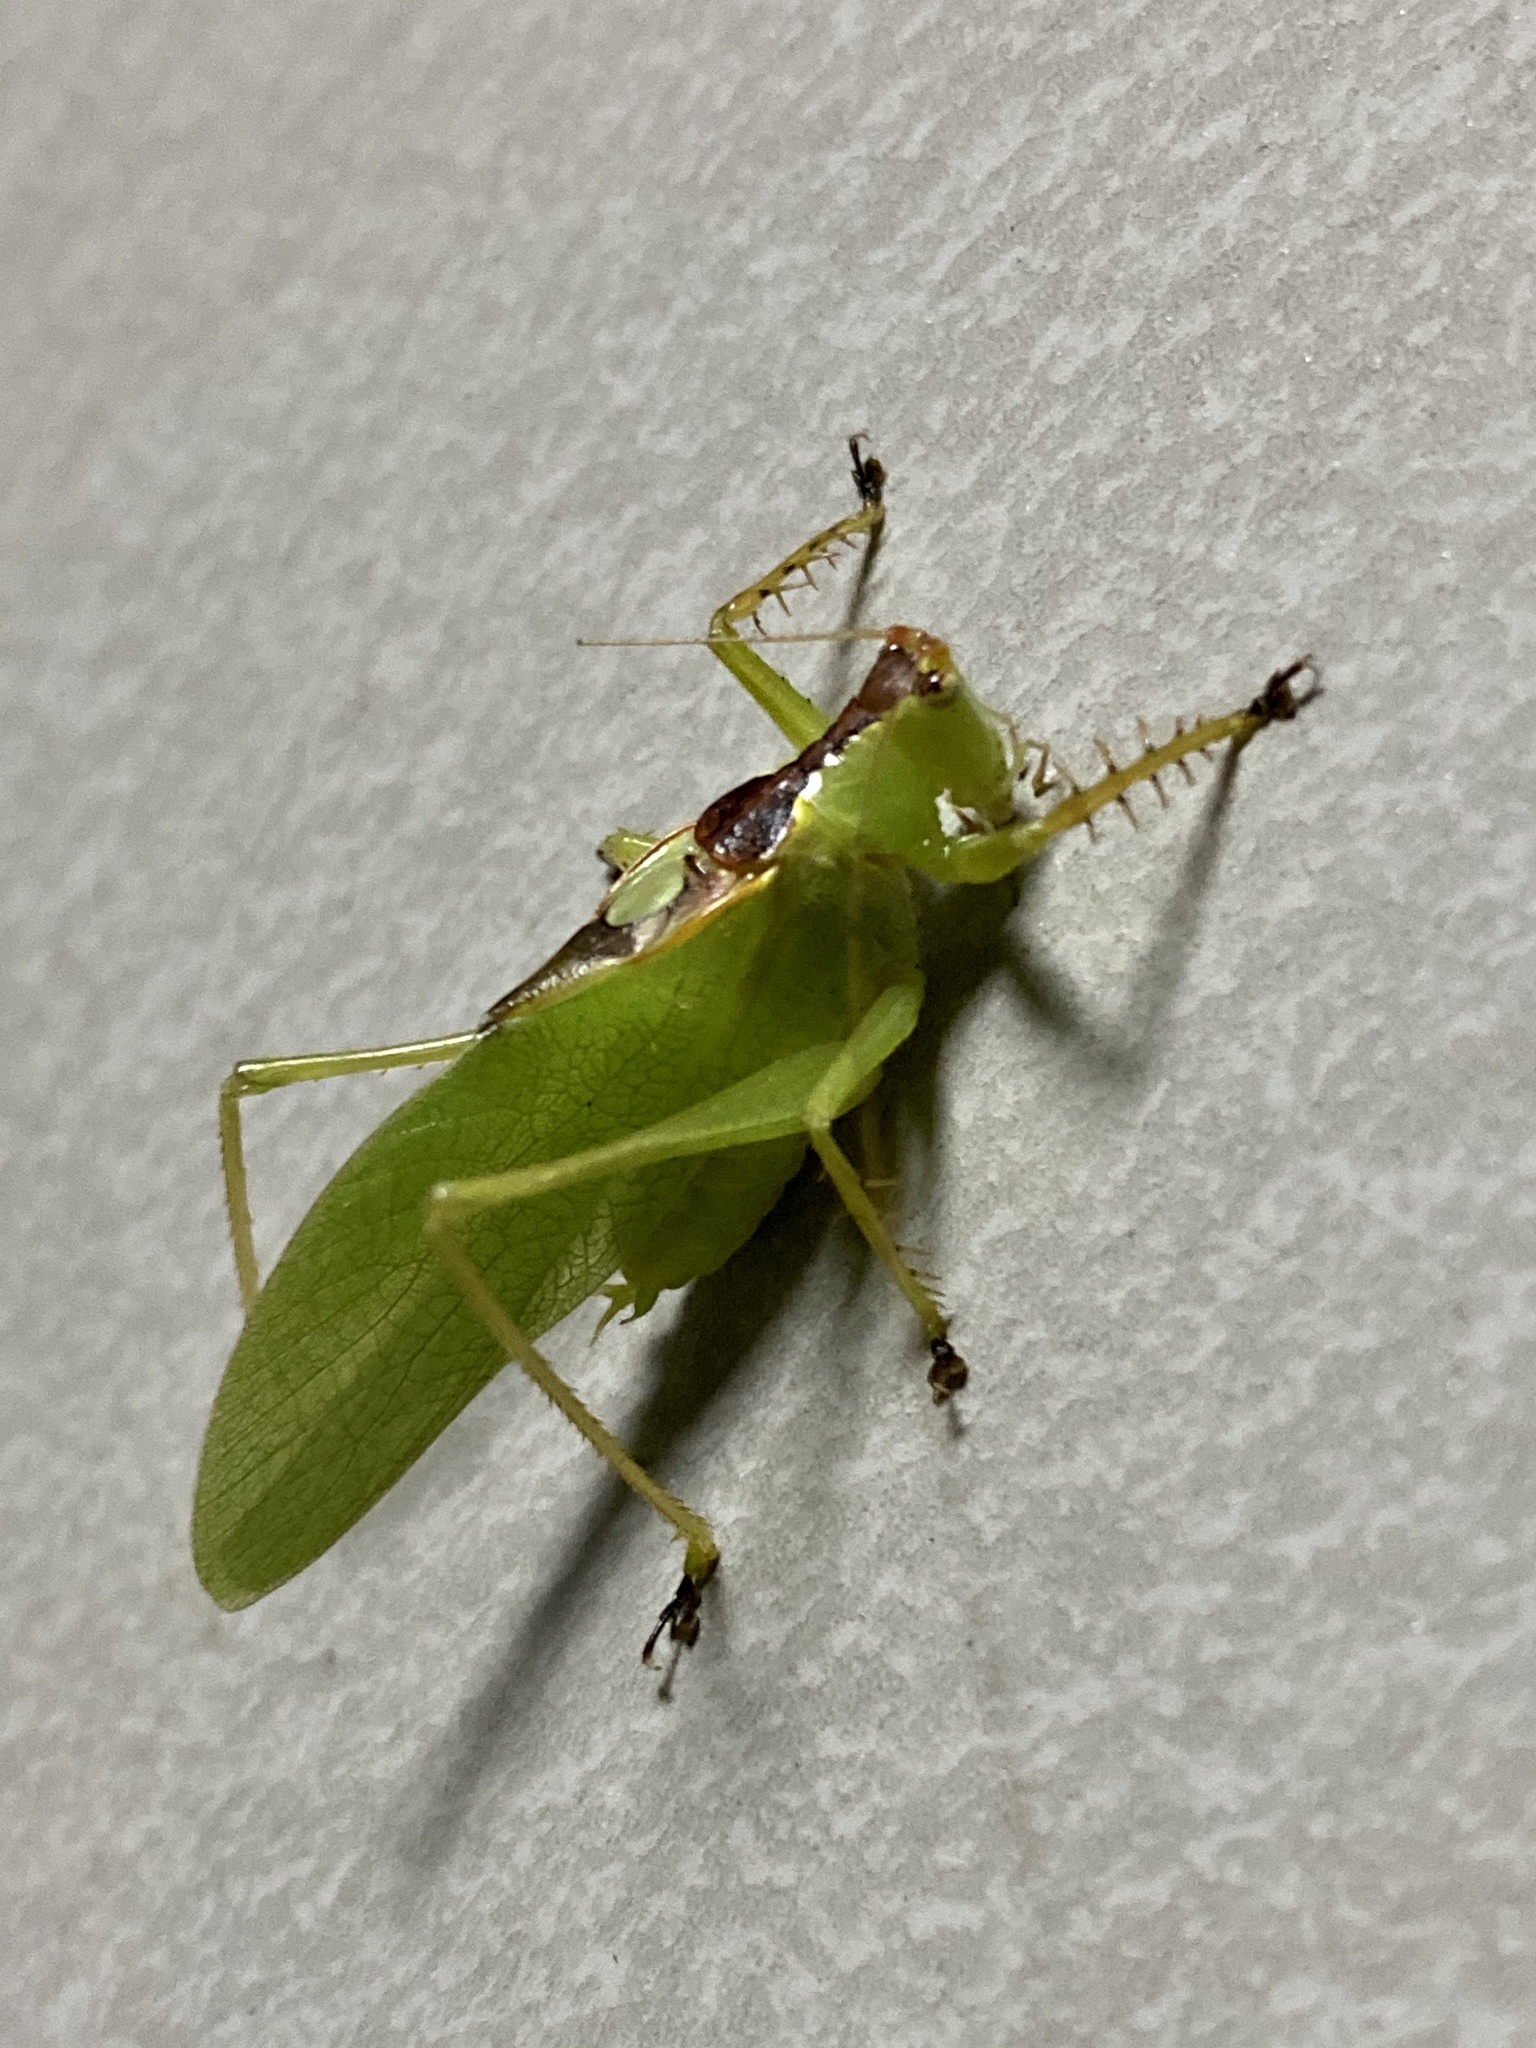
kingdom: Animalia
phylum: Arthropoda
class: Insecta
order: Orthoptera
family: Tettigoniidae
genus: Hexacentrus
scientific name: Hexacentrus hareyamai
